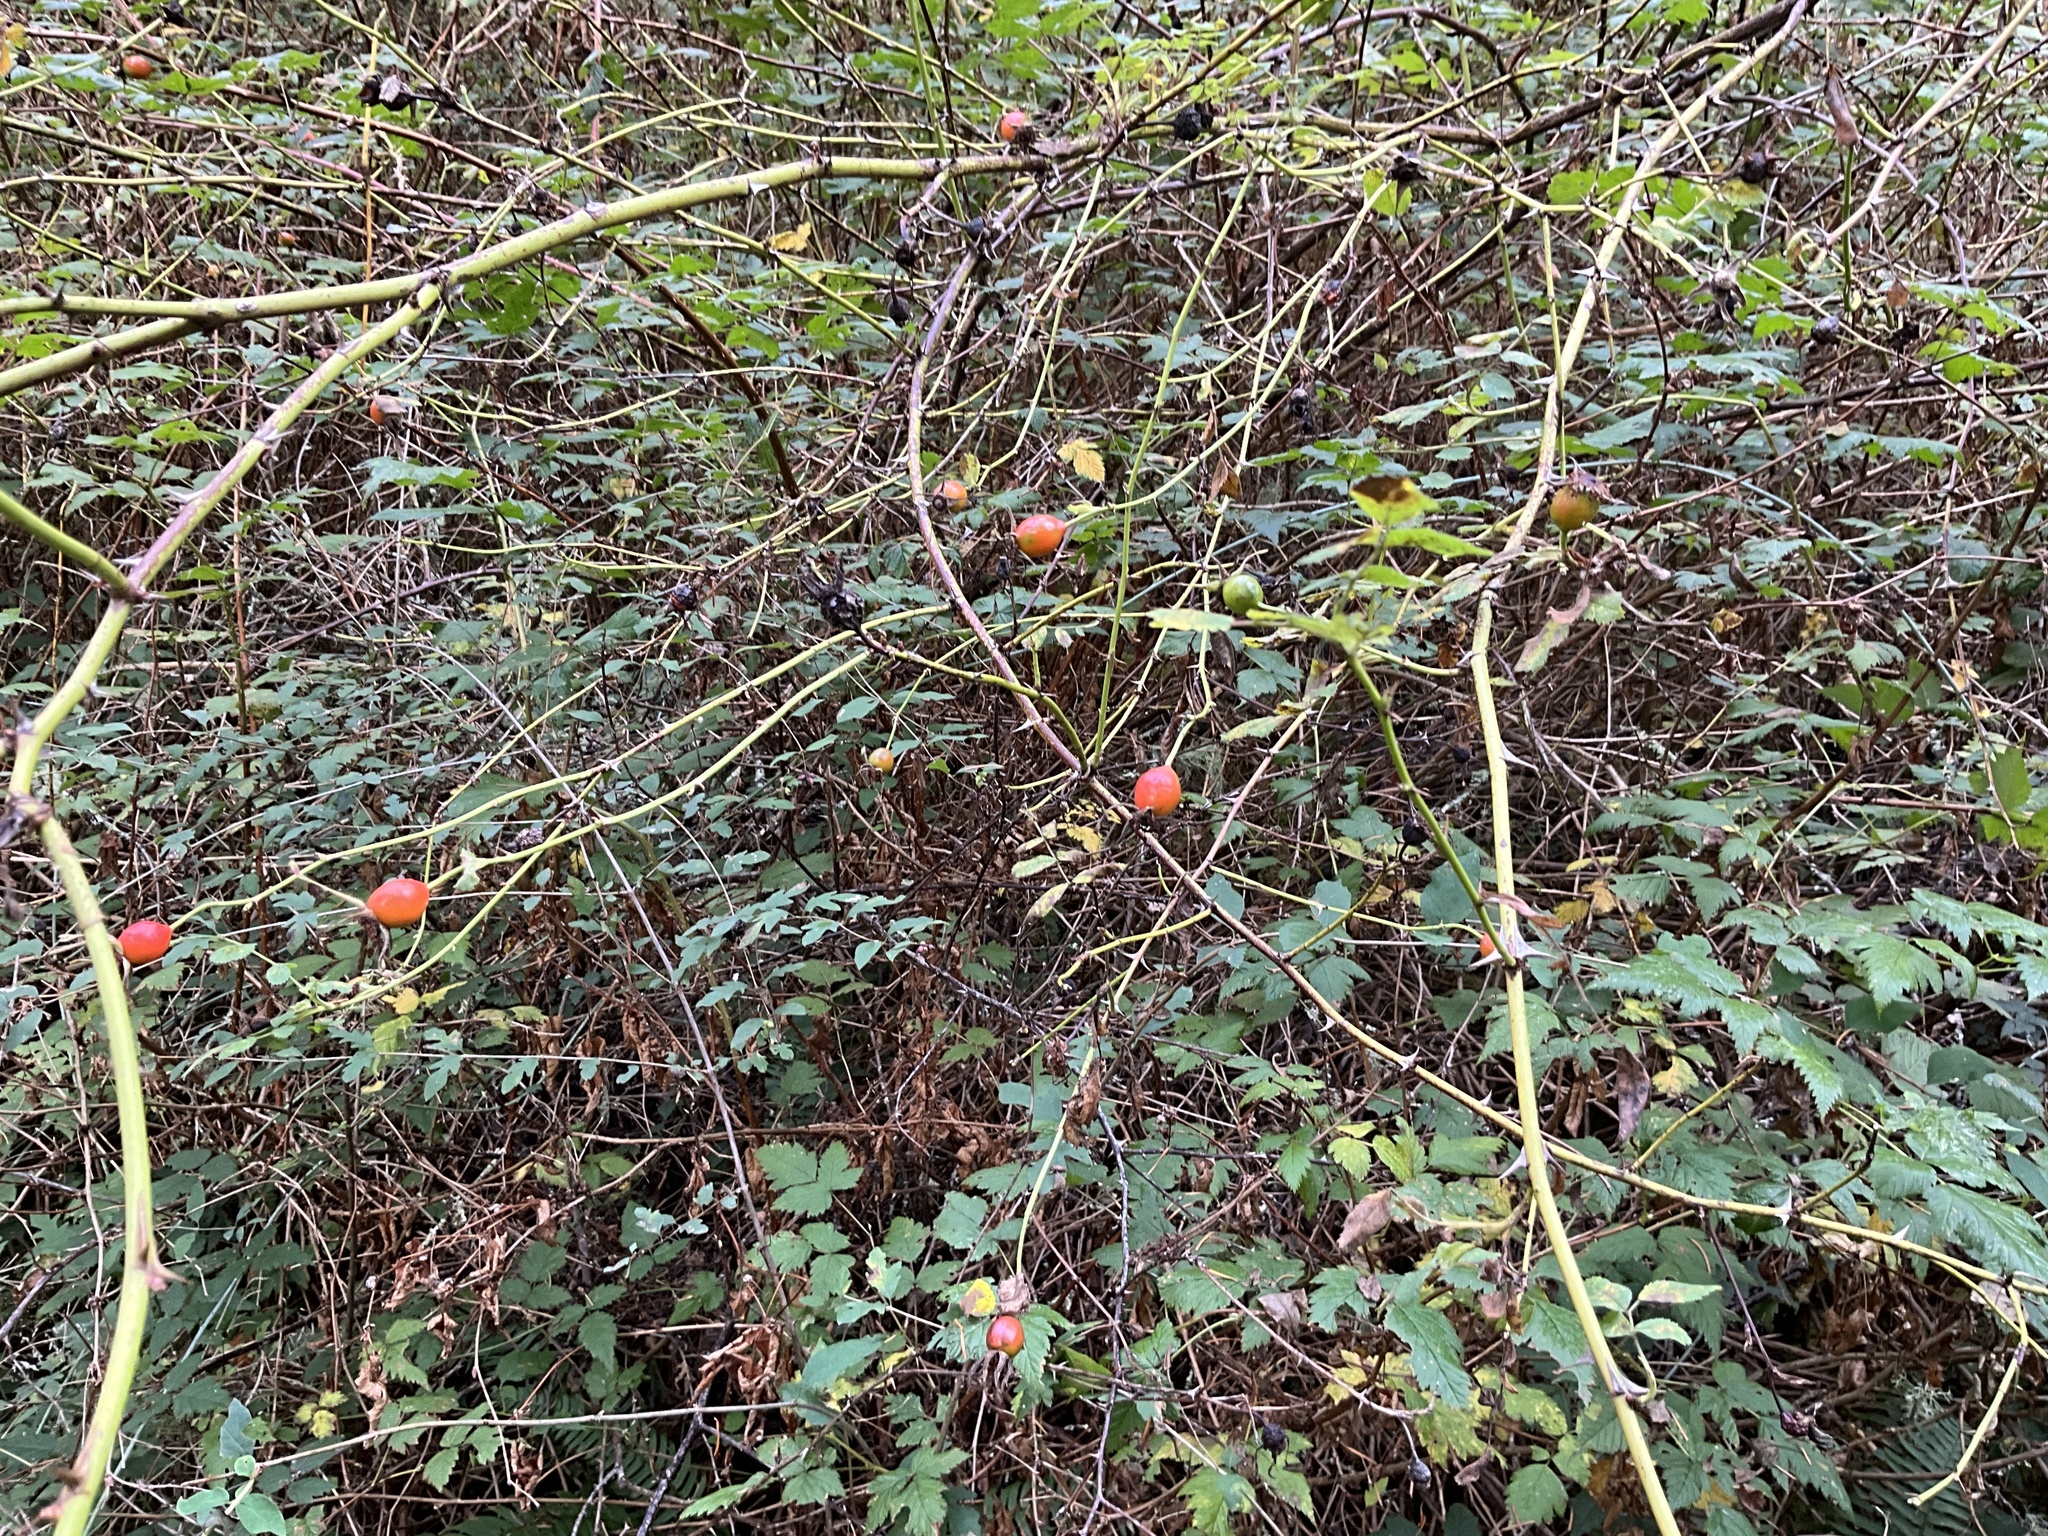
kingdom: Plantae
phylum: Tracheophyta
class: Magnoliopsida
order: Rosales
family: Rosaceae
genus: Rosa
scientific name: Rosa nutkana
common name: Nootka rose
